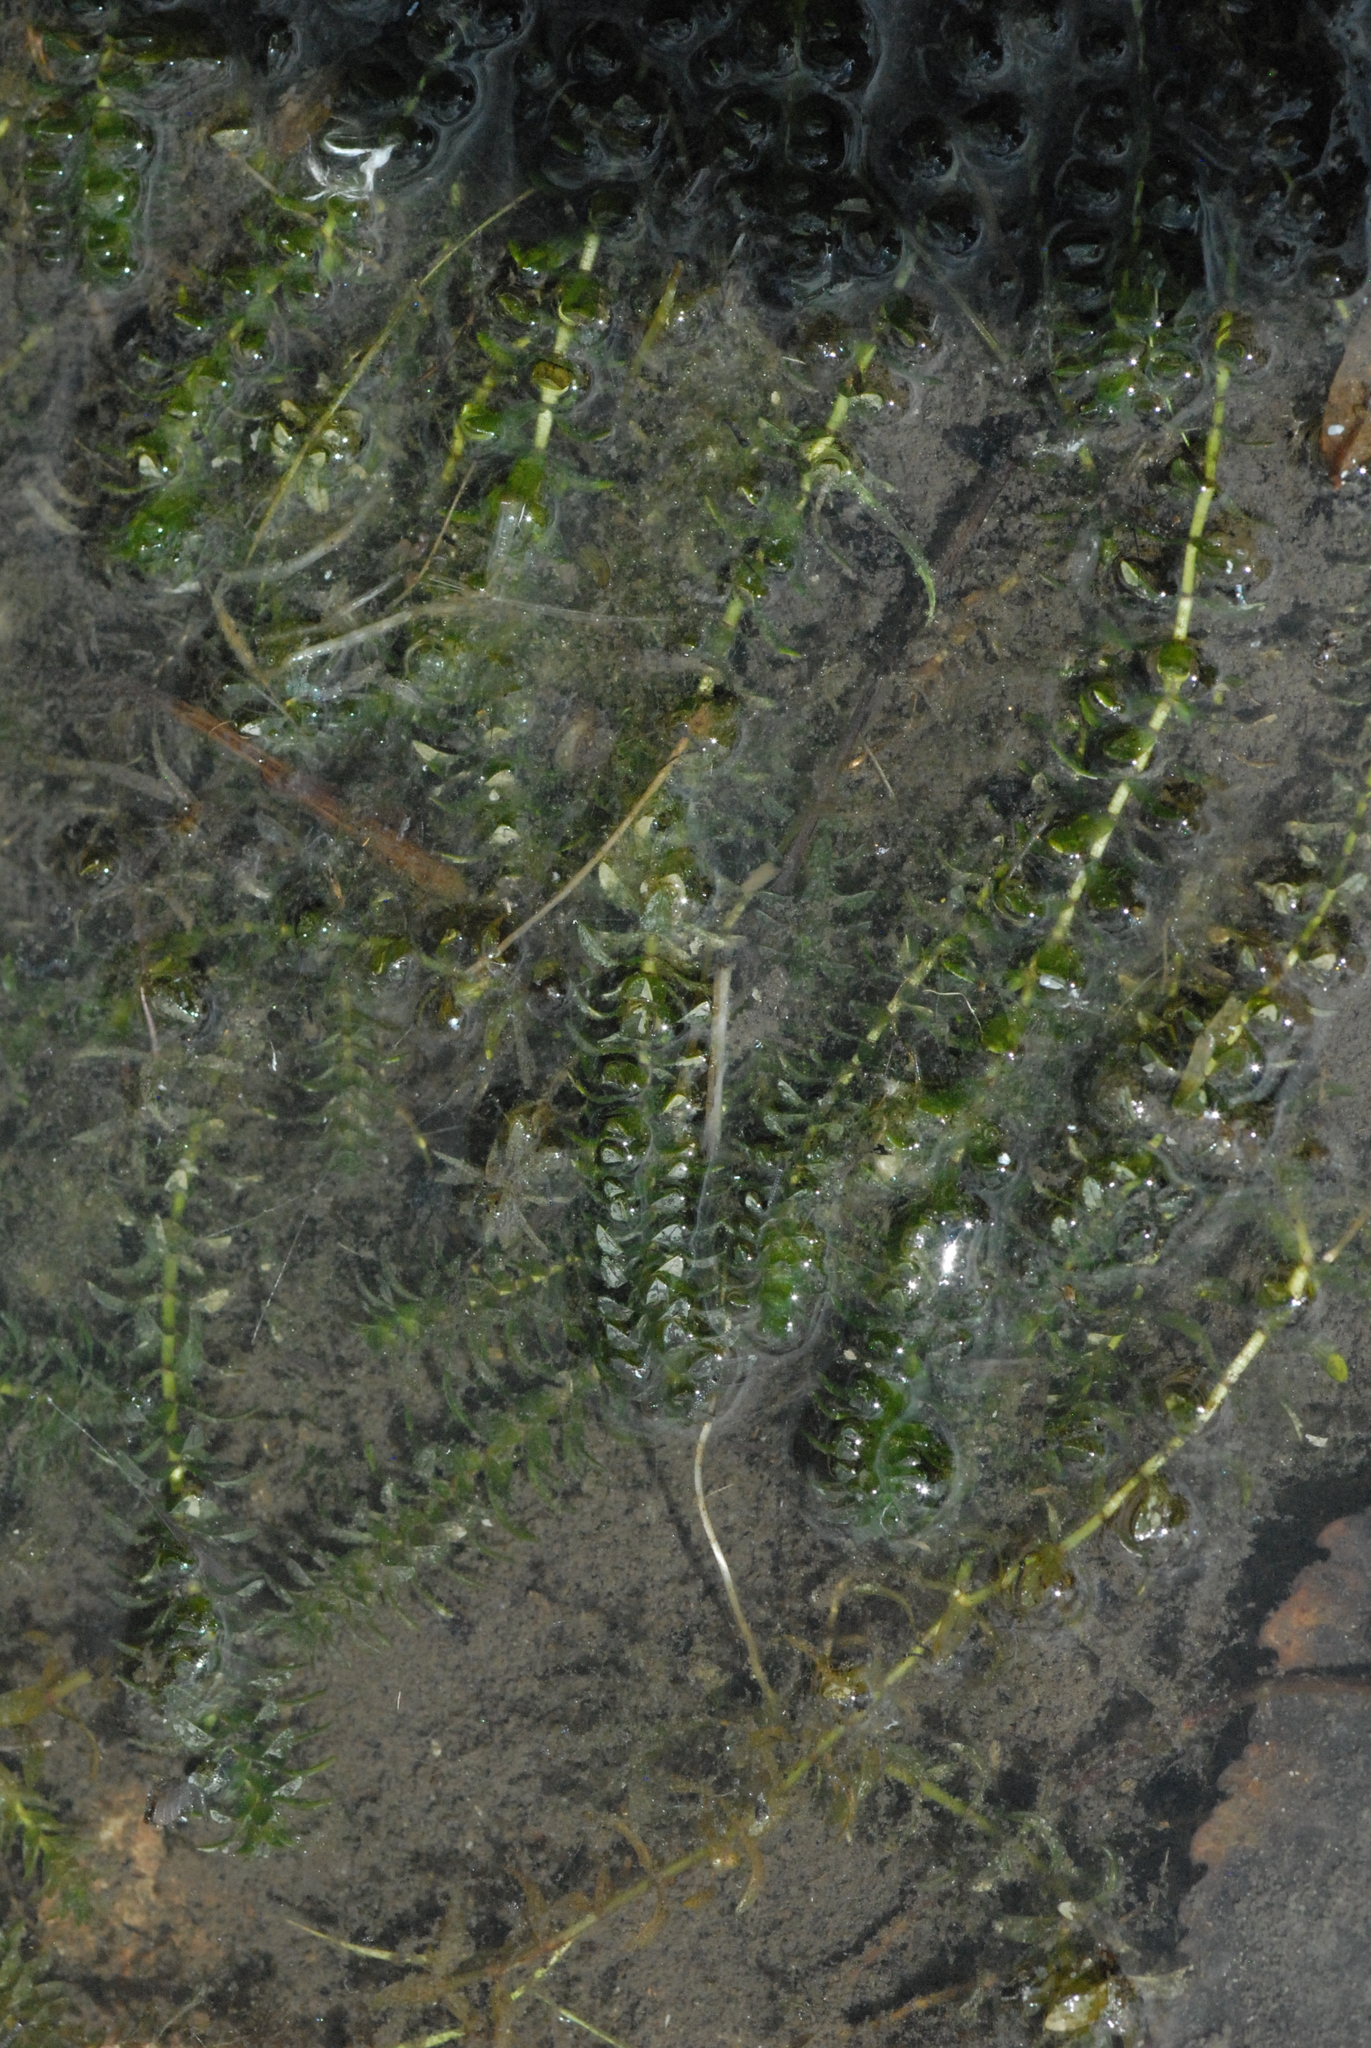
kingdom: Plantae
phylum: Tracheophyta
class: Liliopsida
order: Alismatales
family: Hydrocharitaceae
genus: Elodea
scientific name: Elodea canadensis
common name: Canadian waterweed
